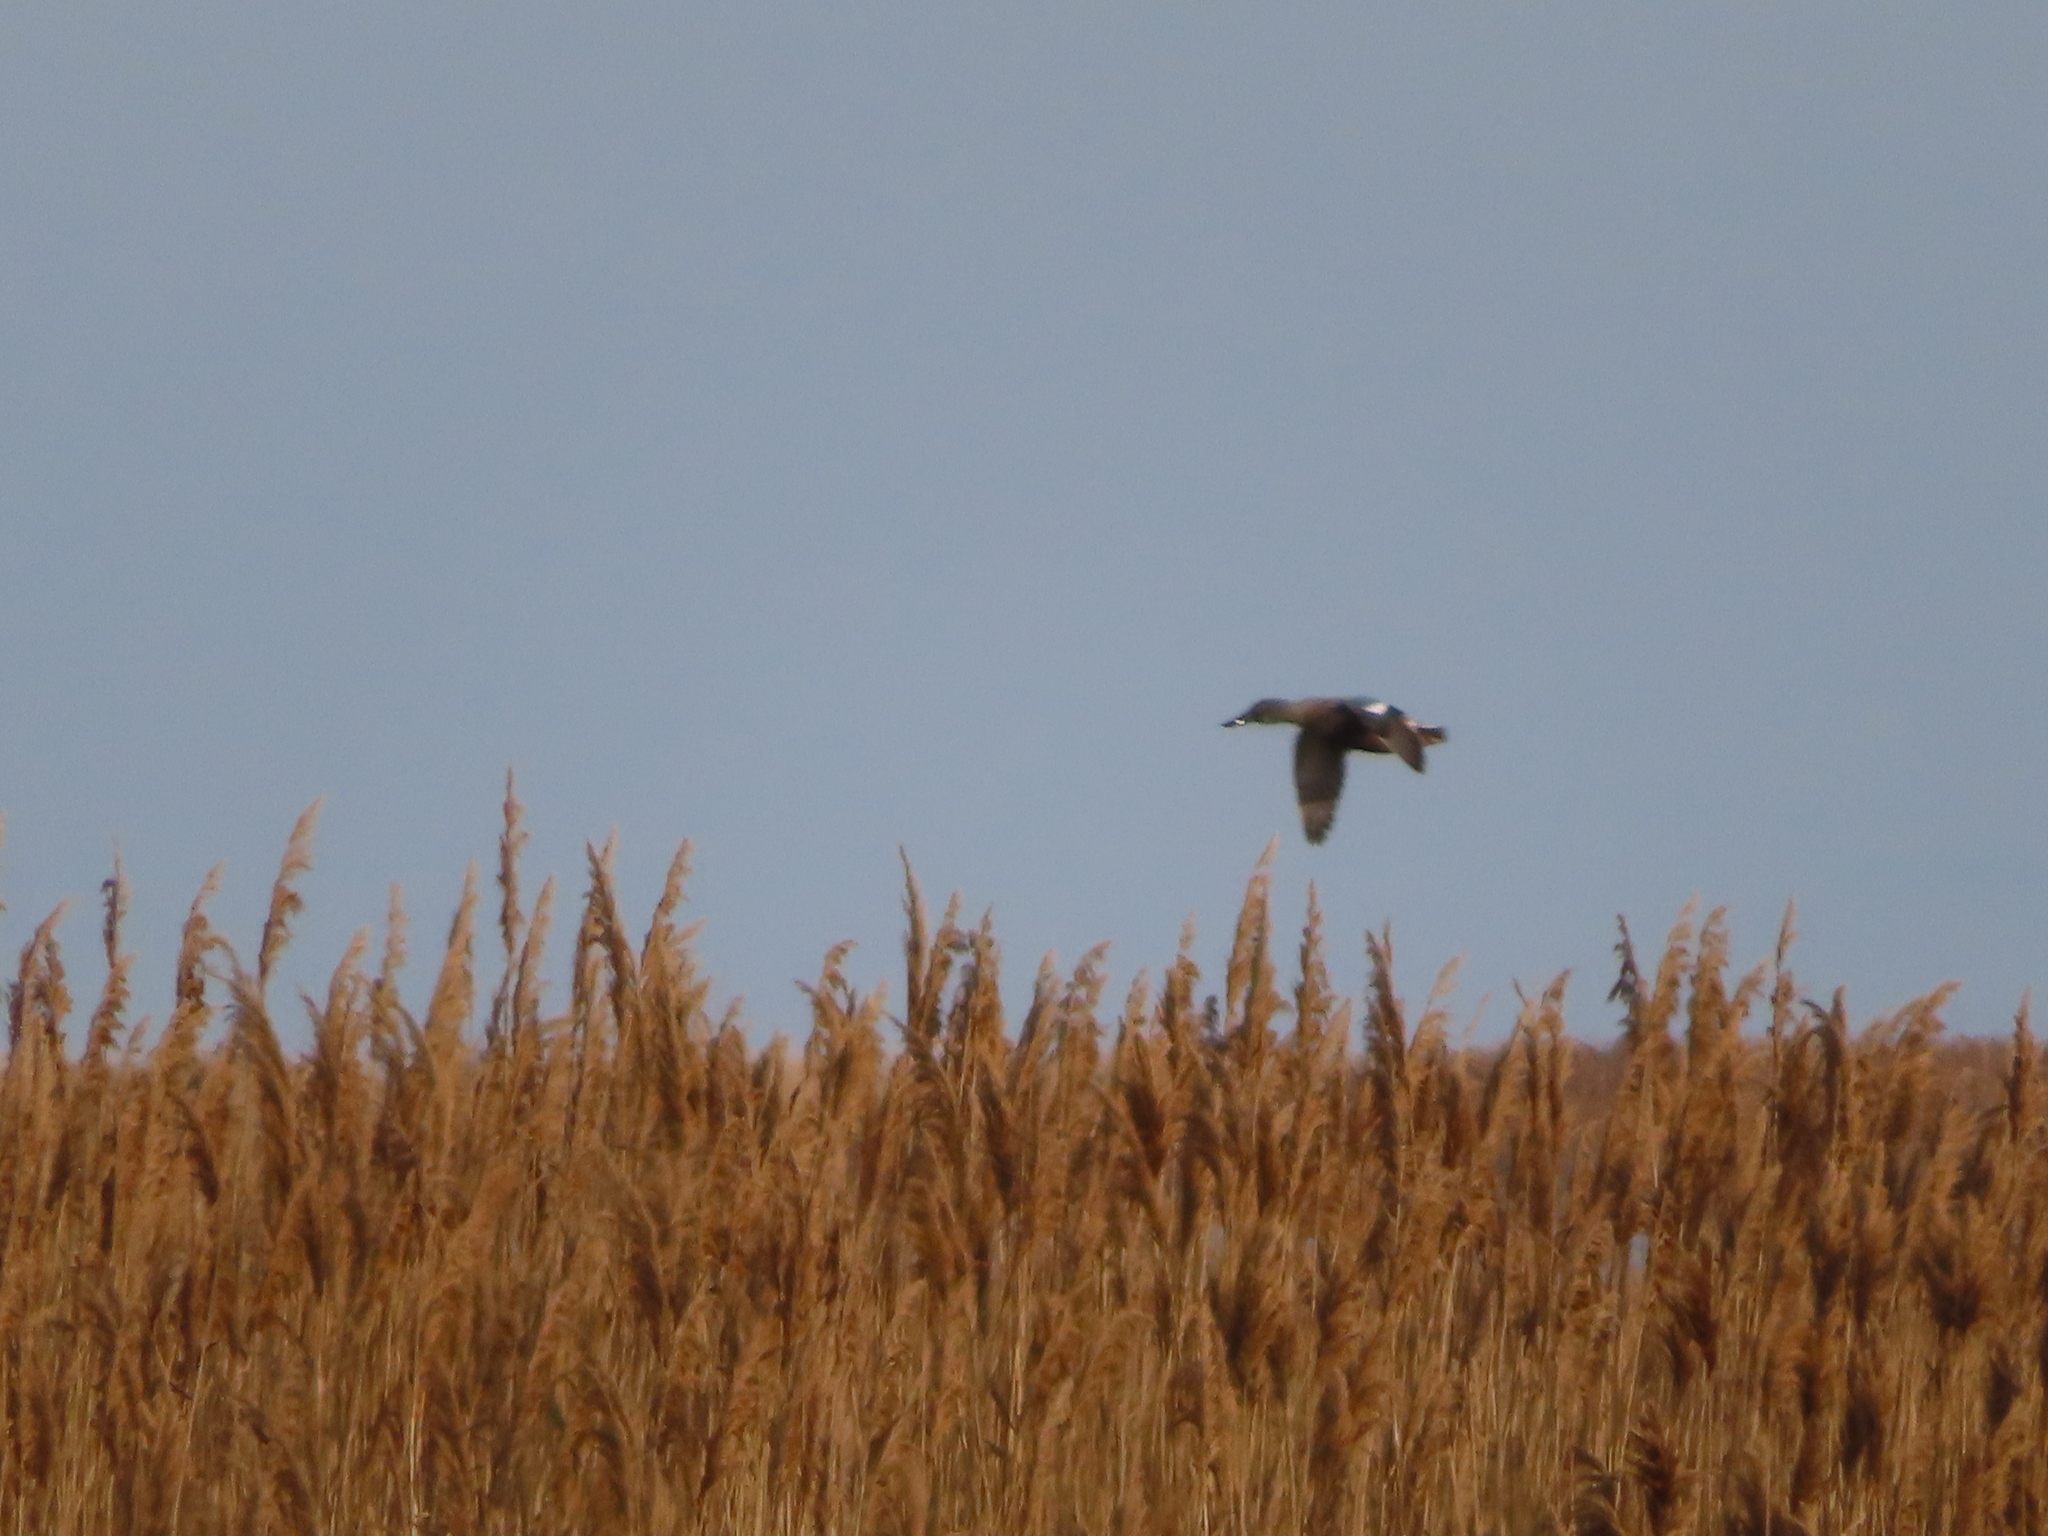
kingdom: Animalia
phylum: Chordata
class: Aves
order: Anseriformes
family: Anatidae
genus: Spatula
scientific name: Spatula clypeata
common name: Northern shoveler
